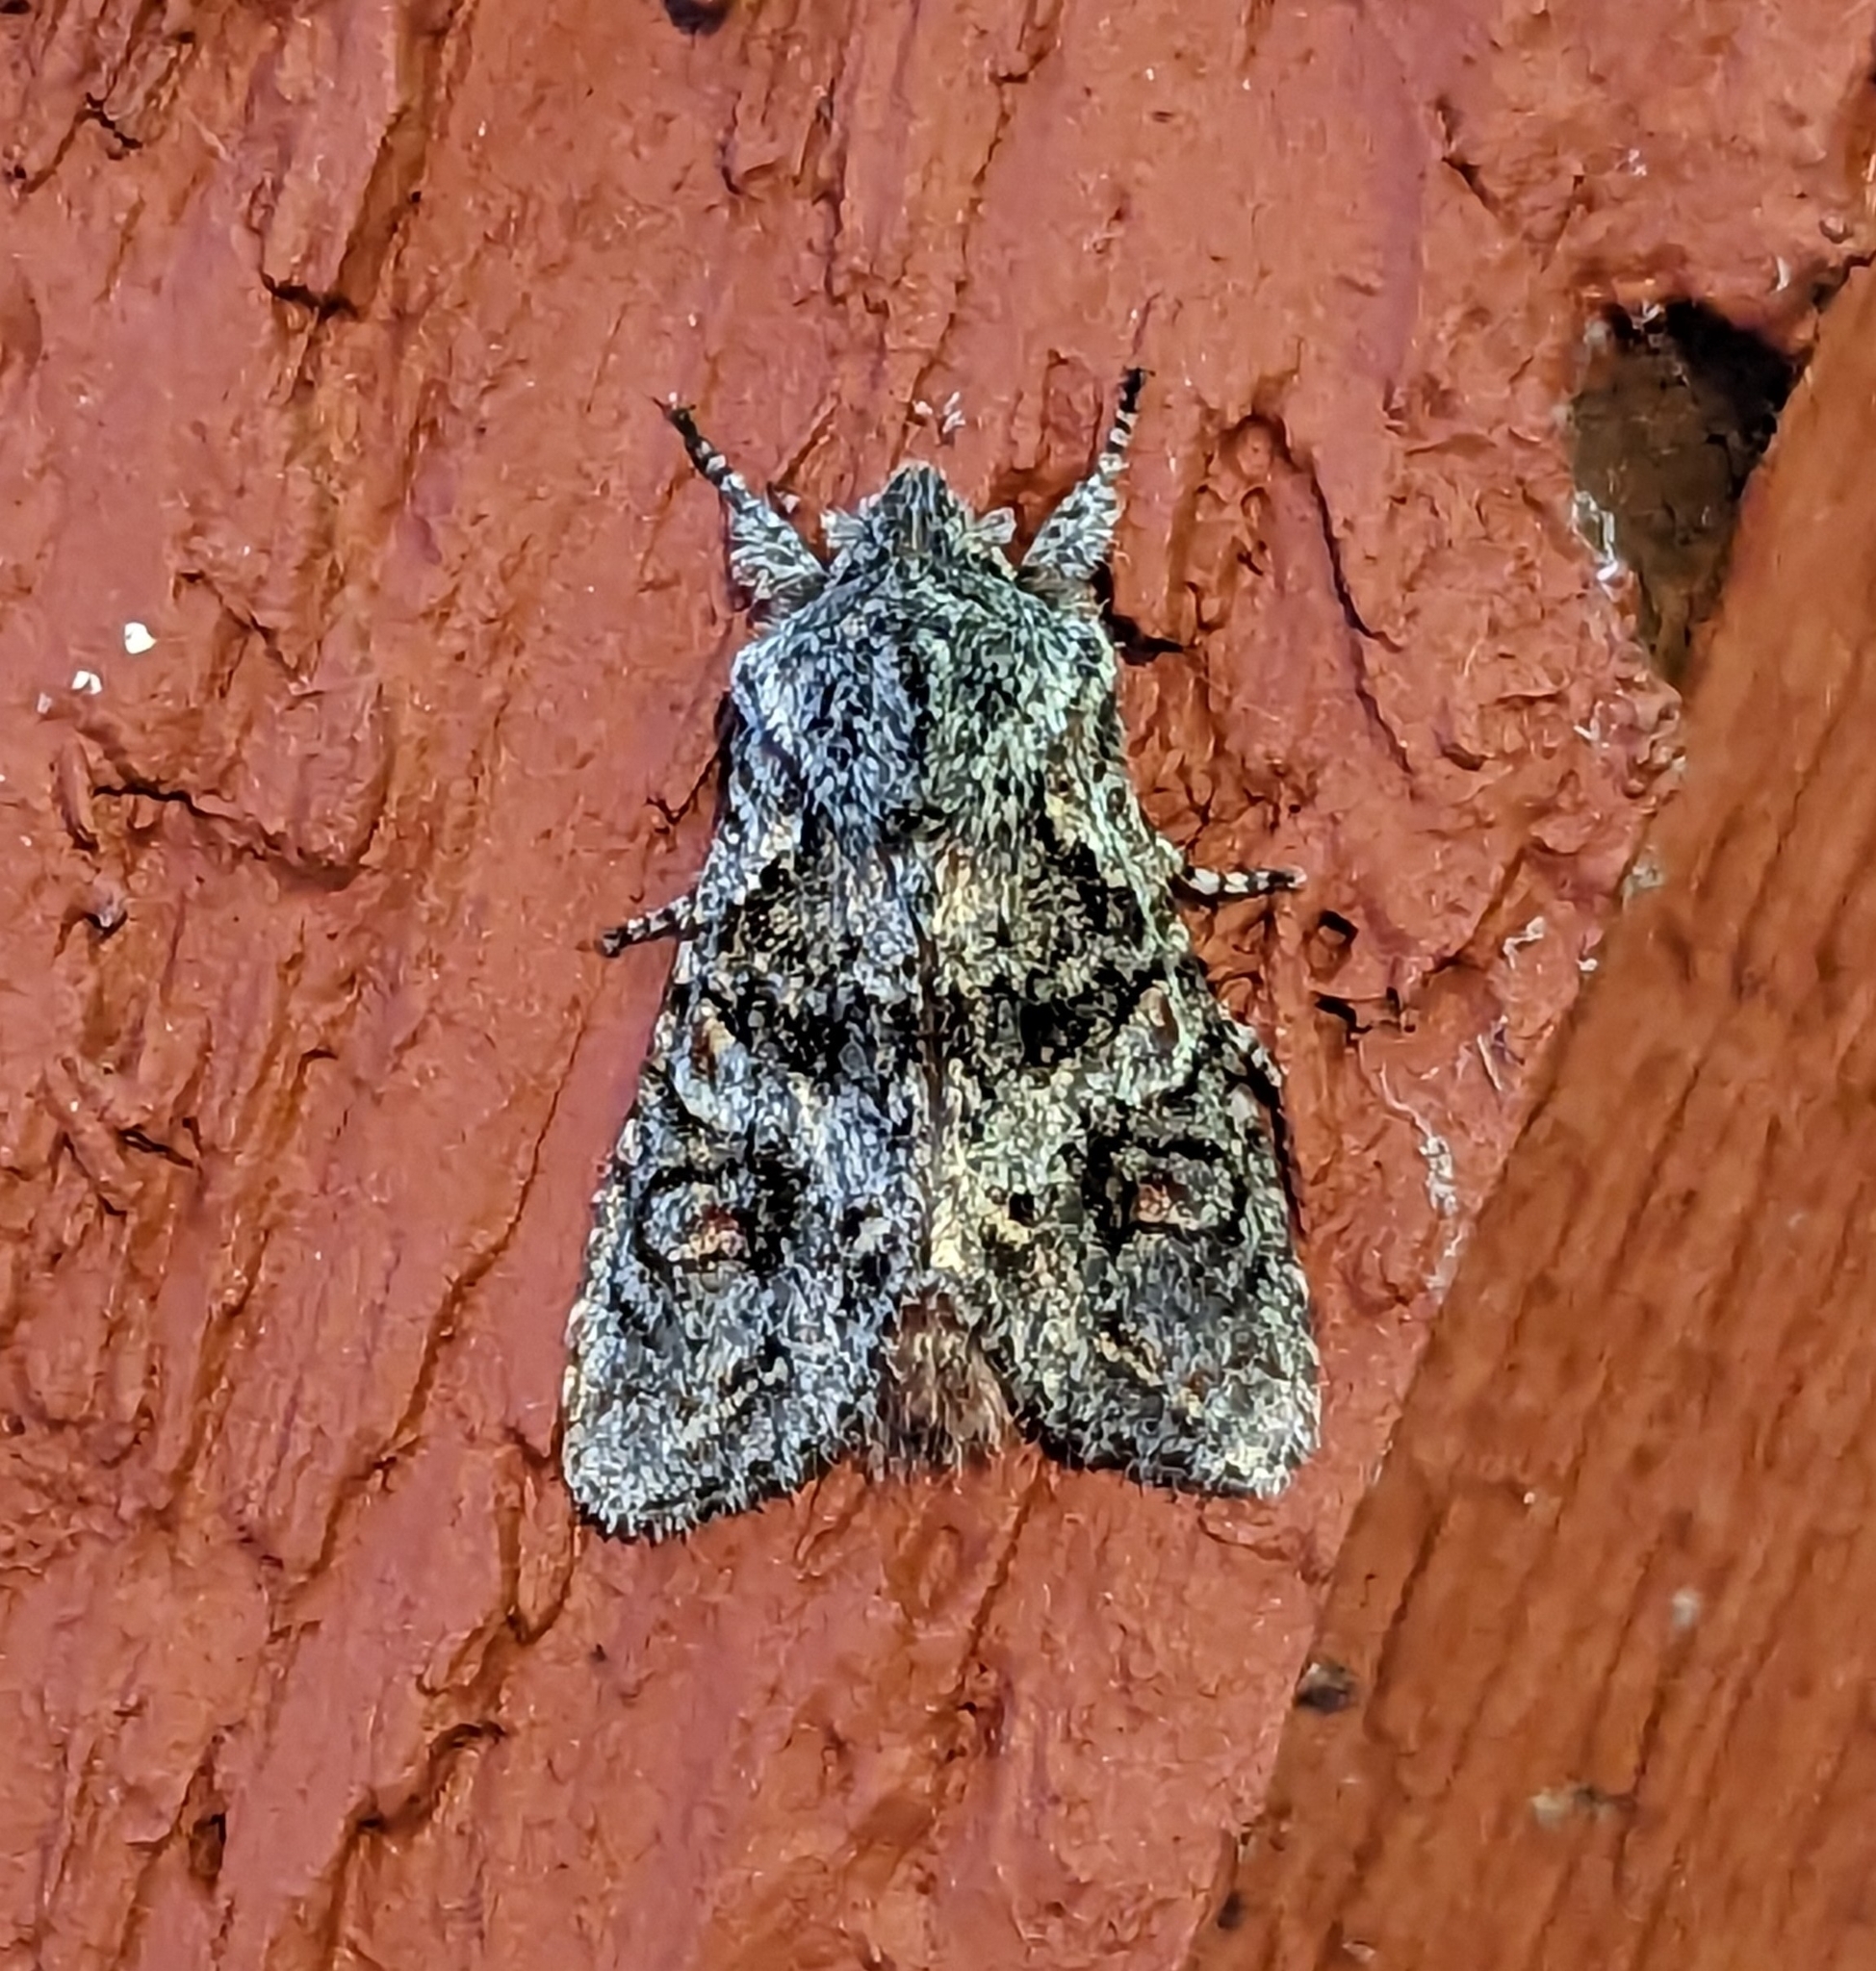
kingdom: Animalia
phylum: Arthropoda
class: Insecta
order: Lepidoptera
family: Noctuidae
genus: Egira
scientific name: Egira hiemalis
